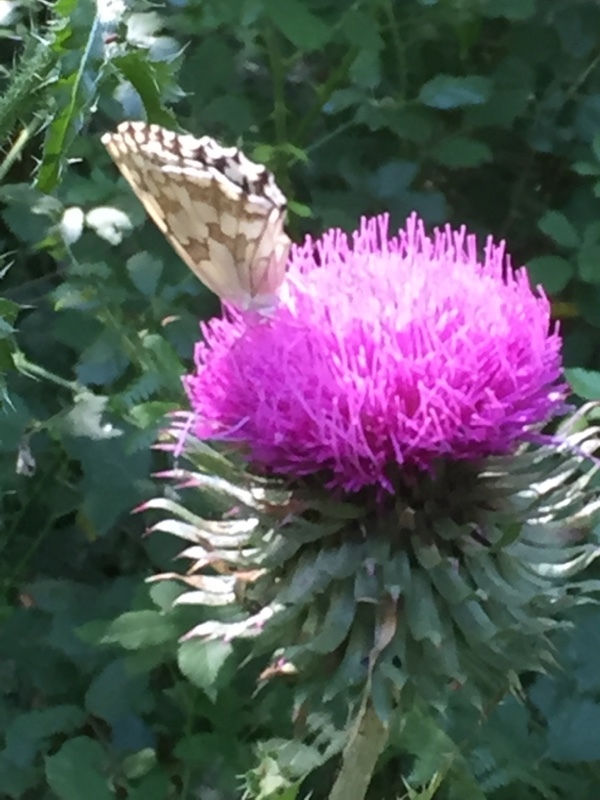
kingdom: Animalia
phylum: Arthropoda
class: Insecta
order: Lepidoptera
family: Nymphalidae
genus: Melanargia
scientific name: Melanargia lachesis
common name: Iberian marbled white
